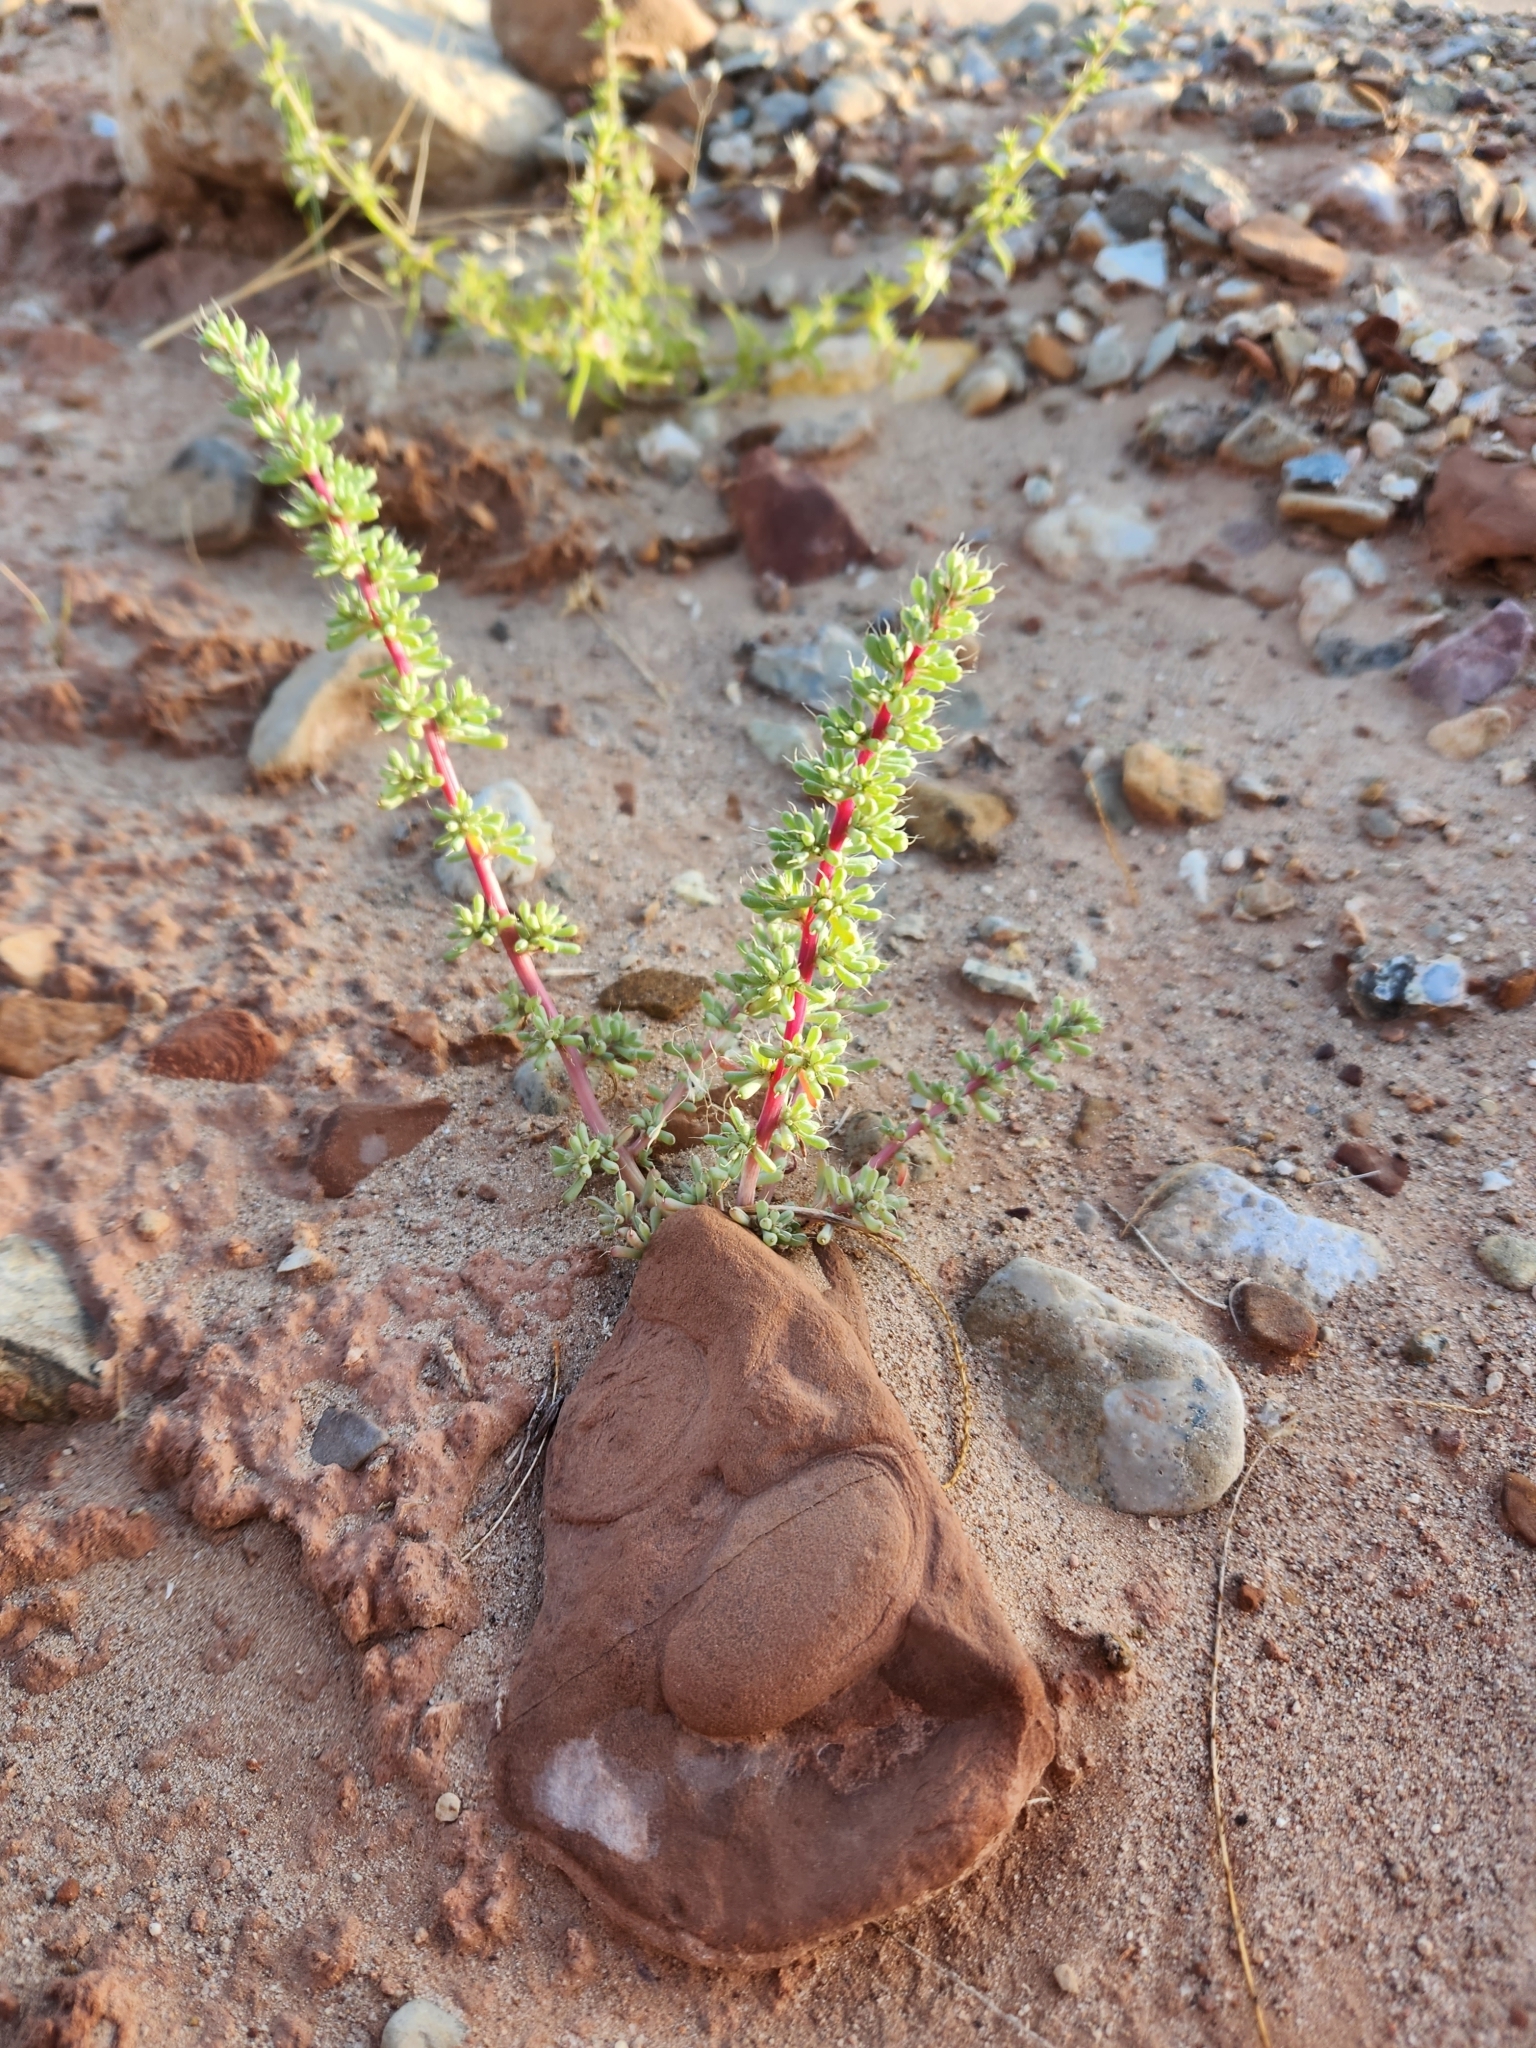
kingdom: Plantae
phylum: Tracheophyta
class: Magnoliopsida
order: Caryophyllales
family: Amaranthaceae
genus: Halogeton
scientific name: Halogeton glomeratus
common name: Saltlover
